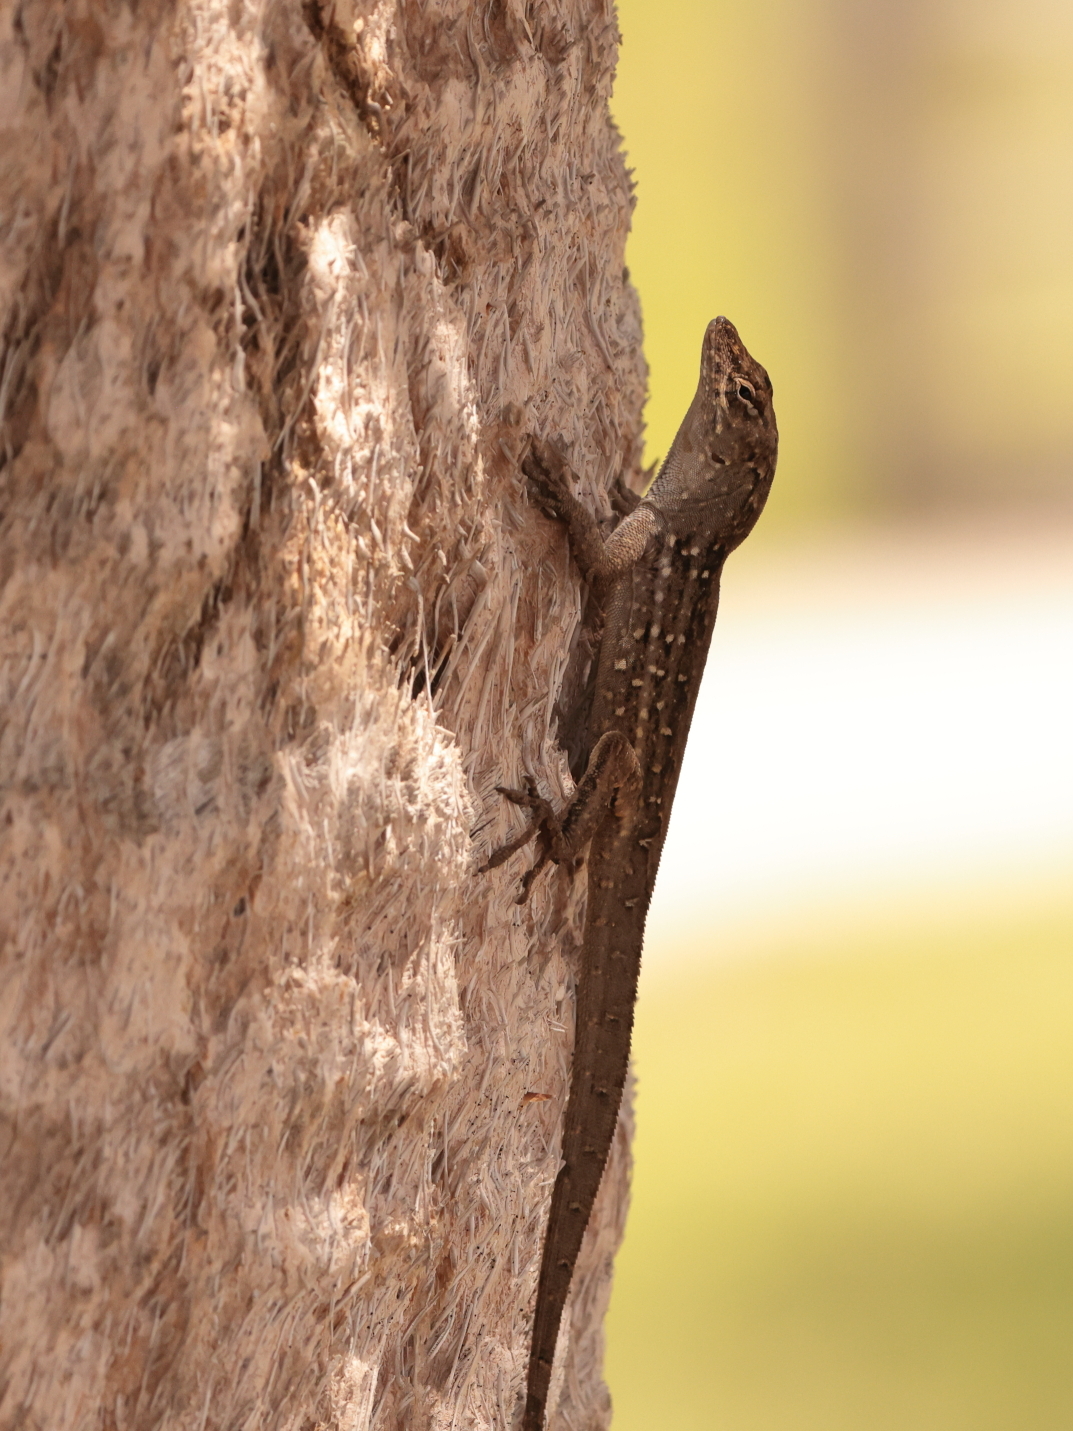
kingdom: Animalia
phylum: Chordata
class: Squamata
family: Dactyloidae
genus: Anolis
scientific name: Anolis sagrei
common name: Brown anole
